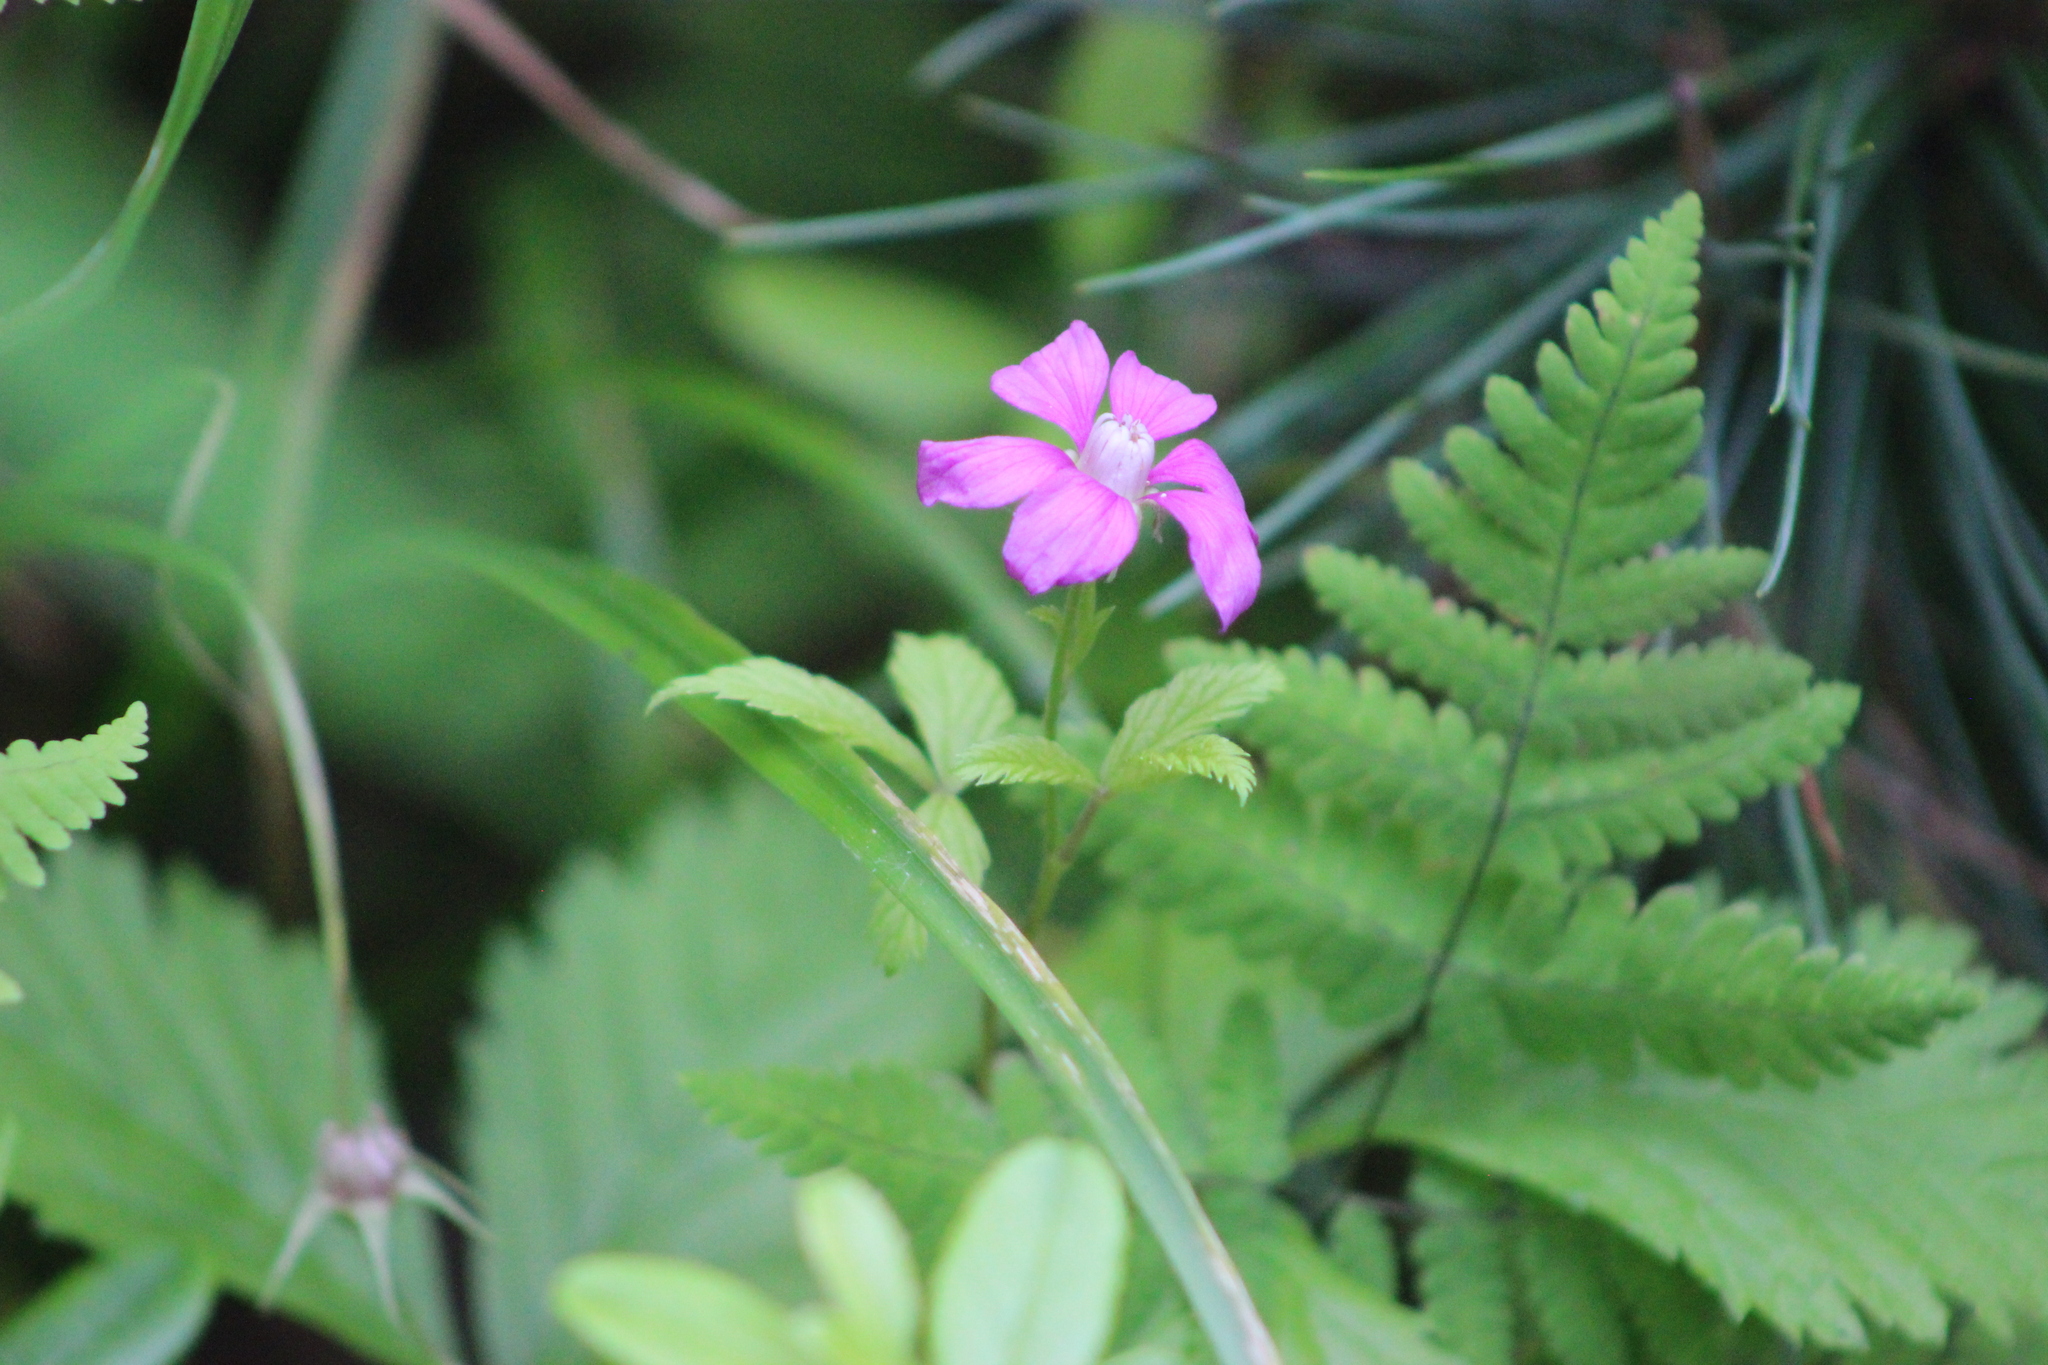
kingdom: Plantae
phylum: Tracheophyta
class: Magnoliopsida
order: Rosales
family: Rosaceae
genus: Rubus
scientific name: Rubus arcticus
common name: Arctic bramble
